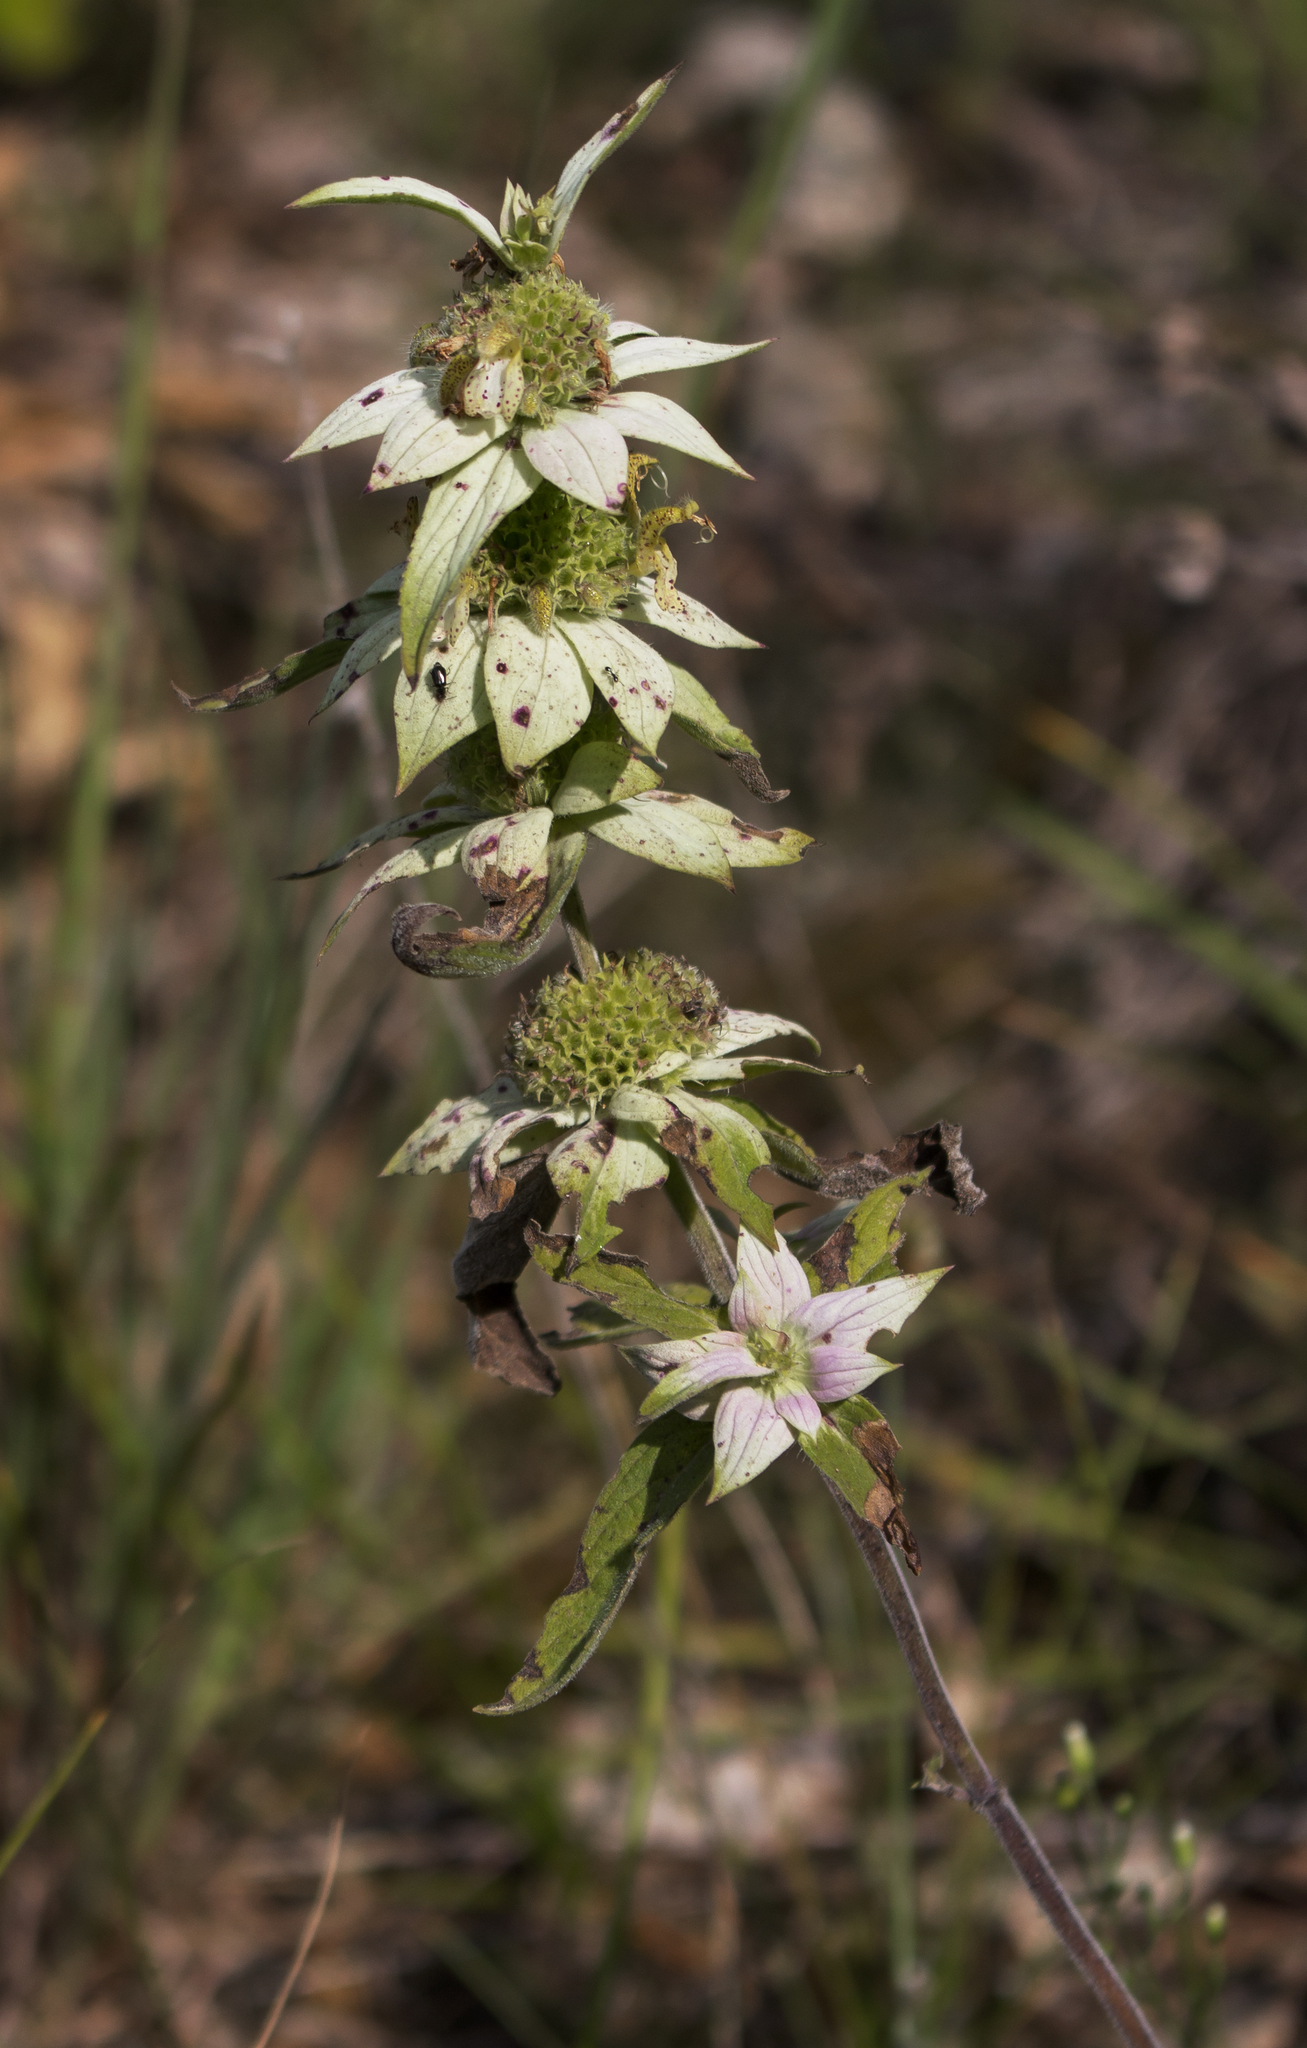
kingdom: Plantae
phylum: Tracheophyta
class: Magnoliopsida
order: Lamiales
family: Lamiaceae
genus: Monarda
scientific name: Monarda punctata
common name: Dotted monarda
